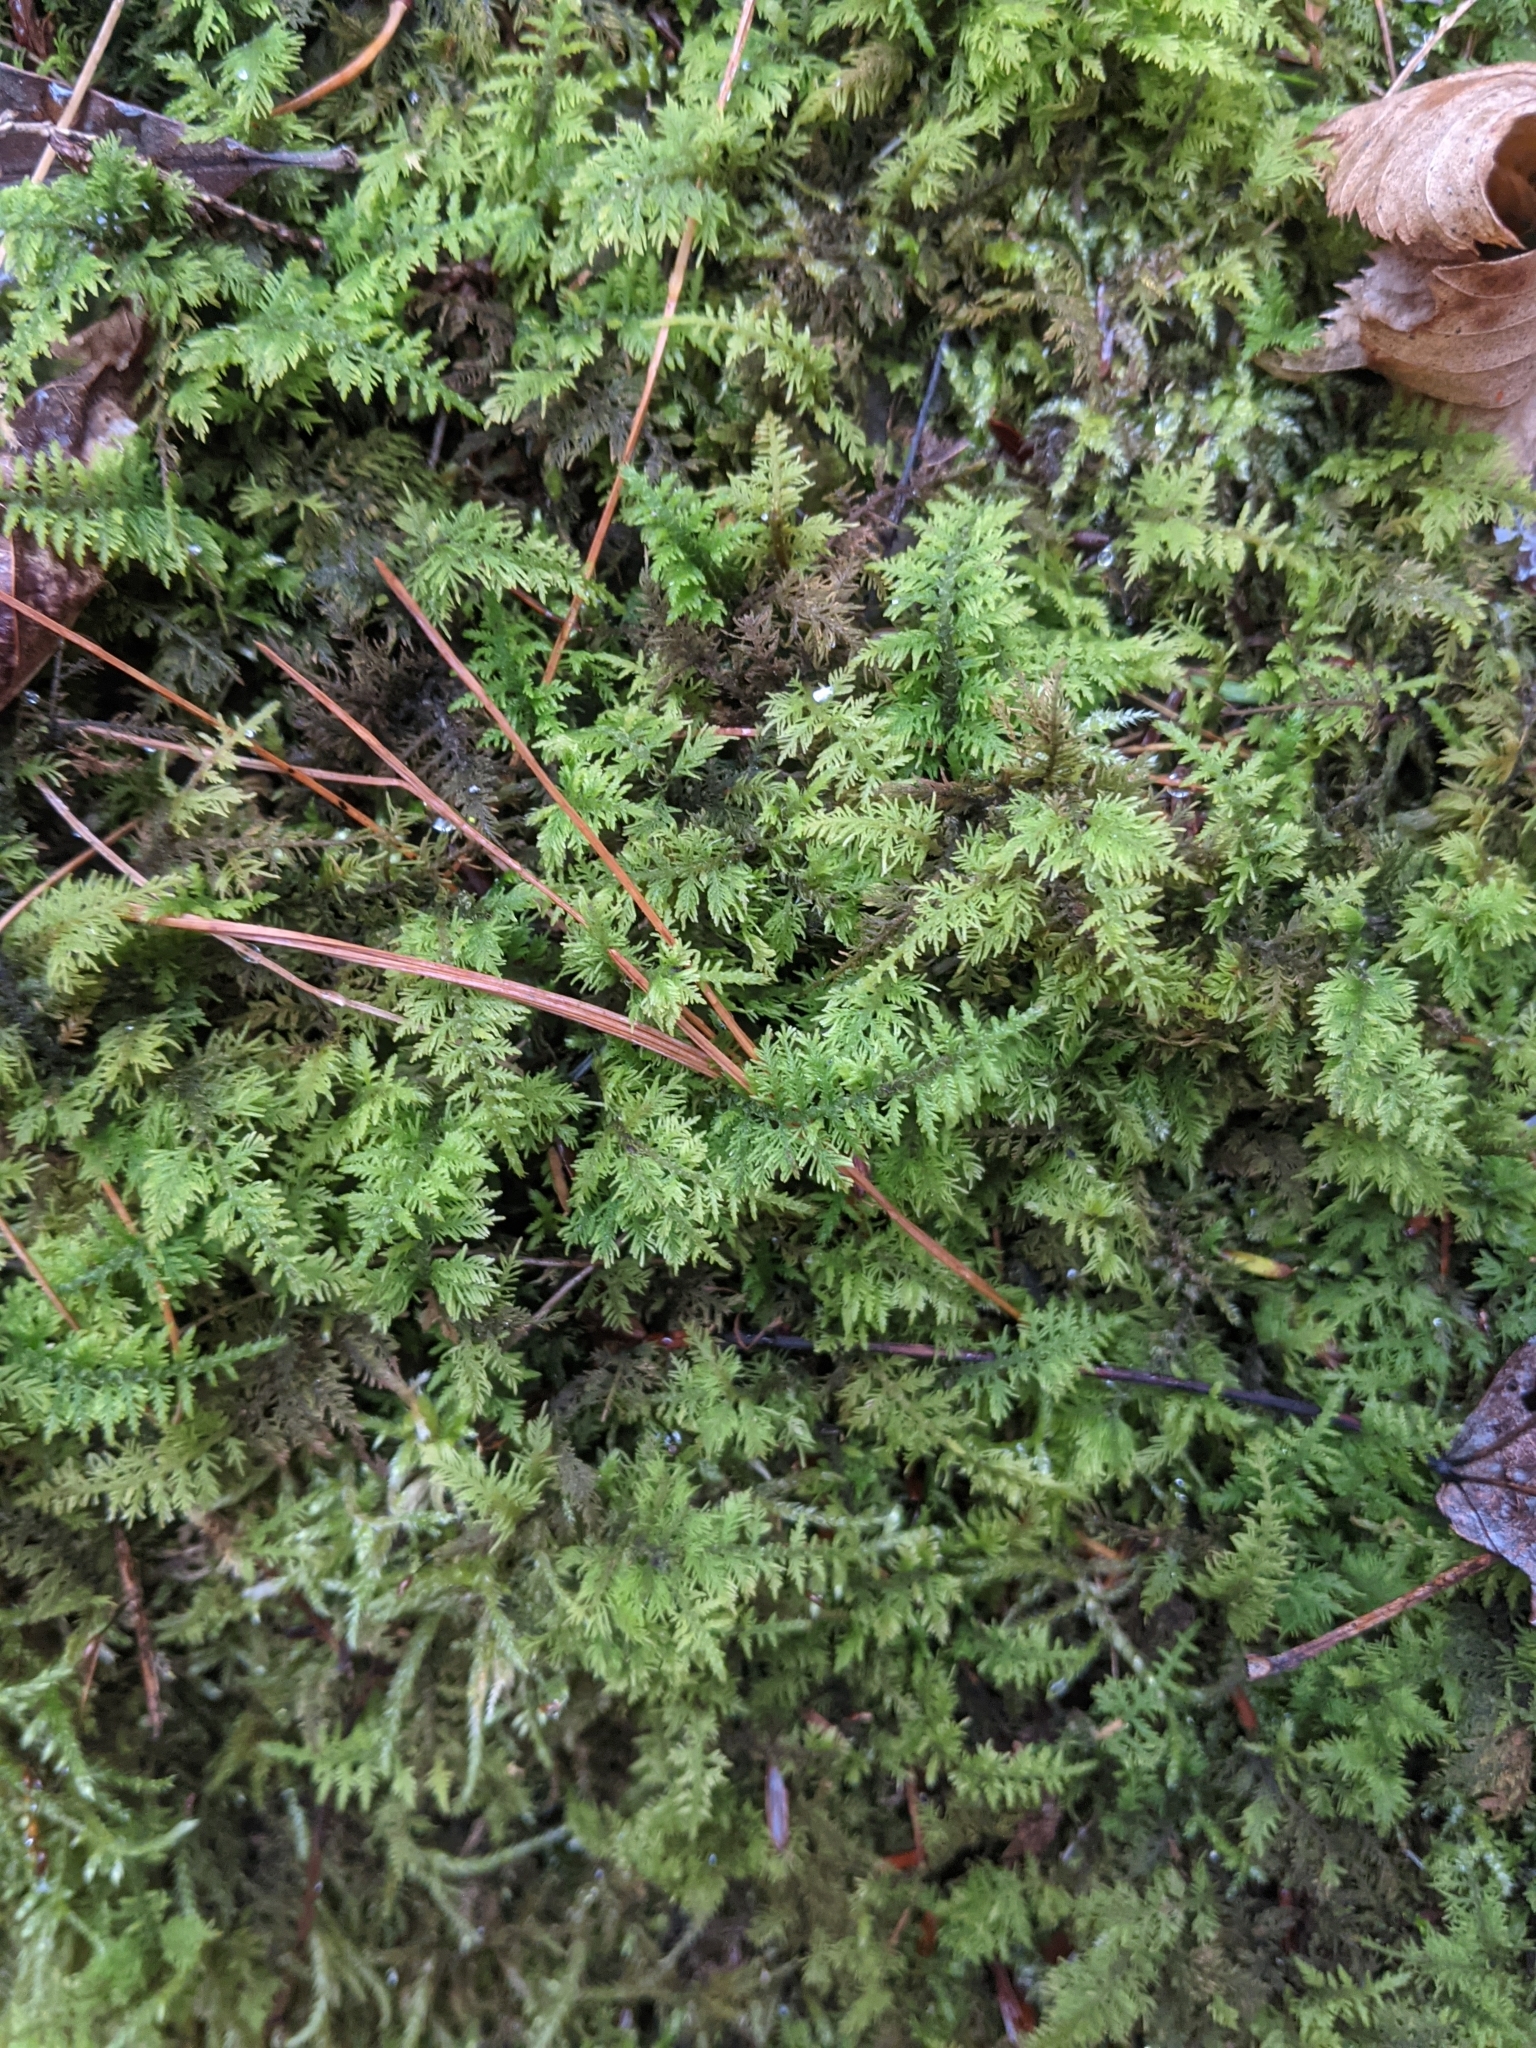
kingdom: Plantae
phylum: Bryophyta
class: Bryopsida
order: Hypnales
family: Hylocomiaceae
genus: Hylocomium
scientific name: Hylocomium splendens
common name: Stairstep moss
